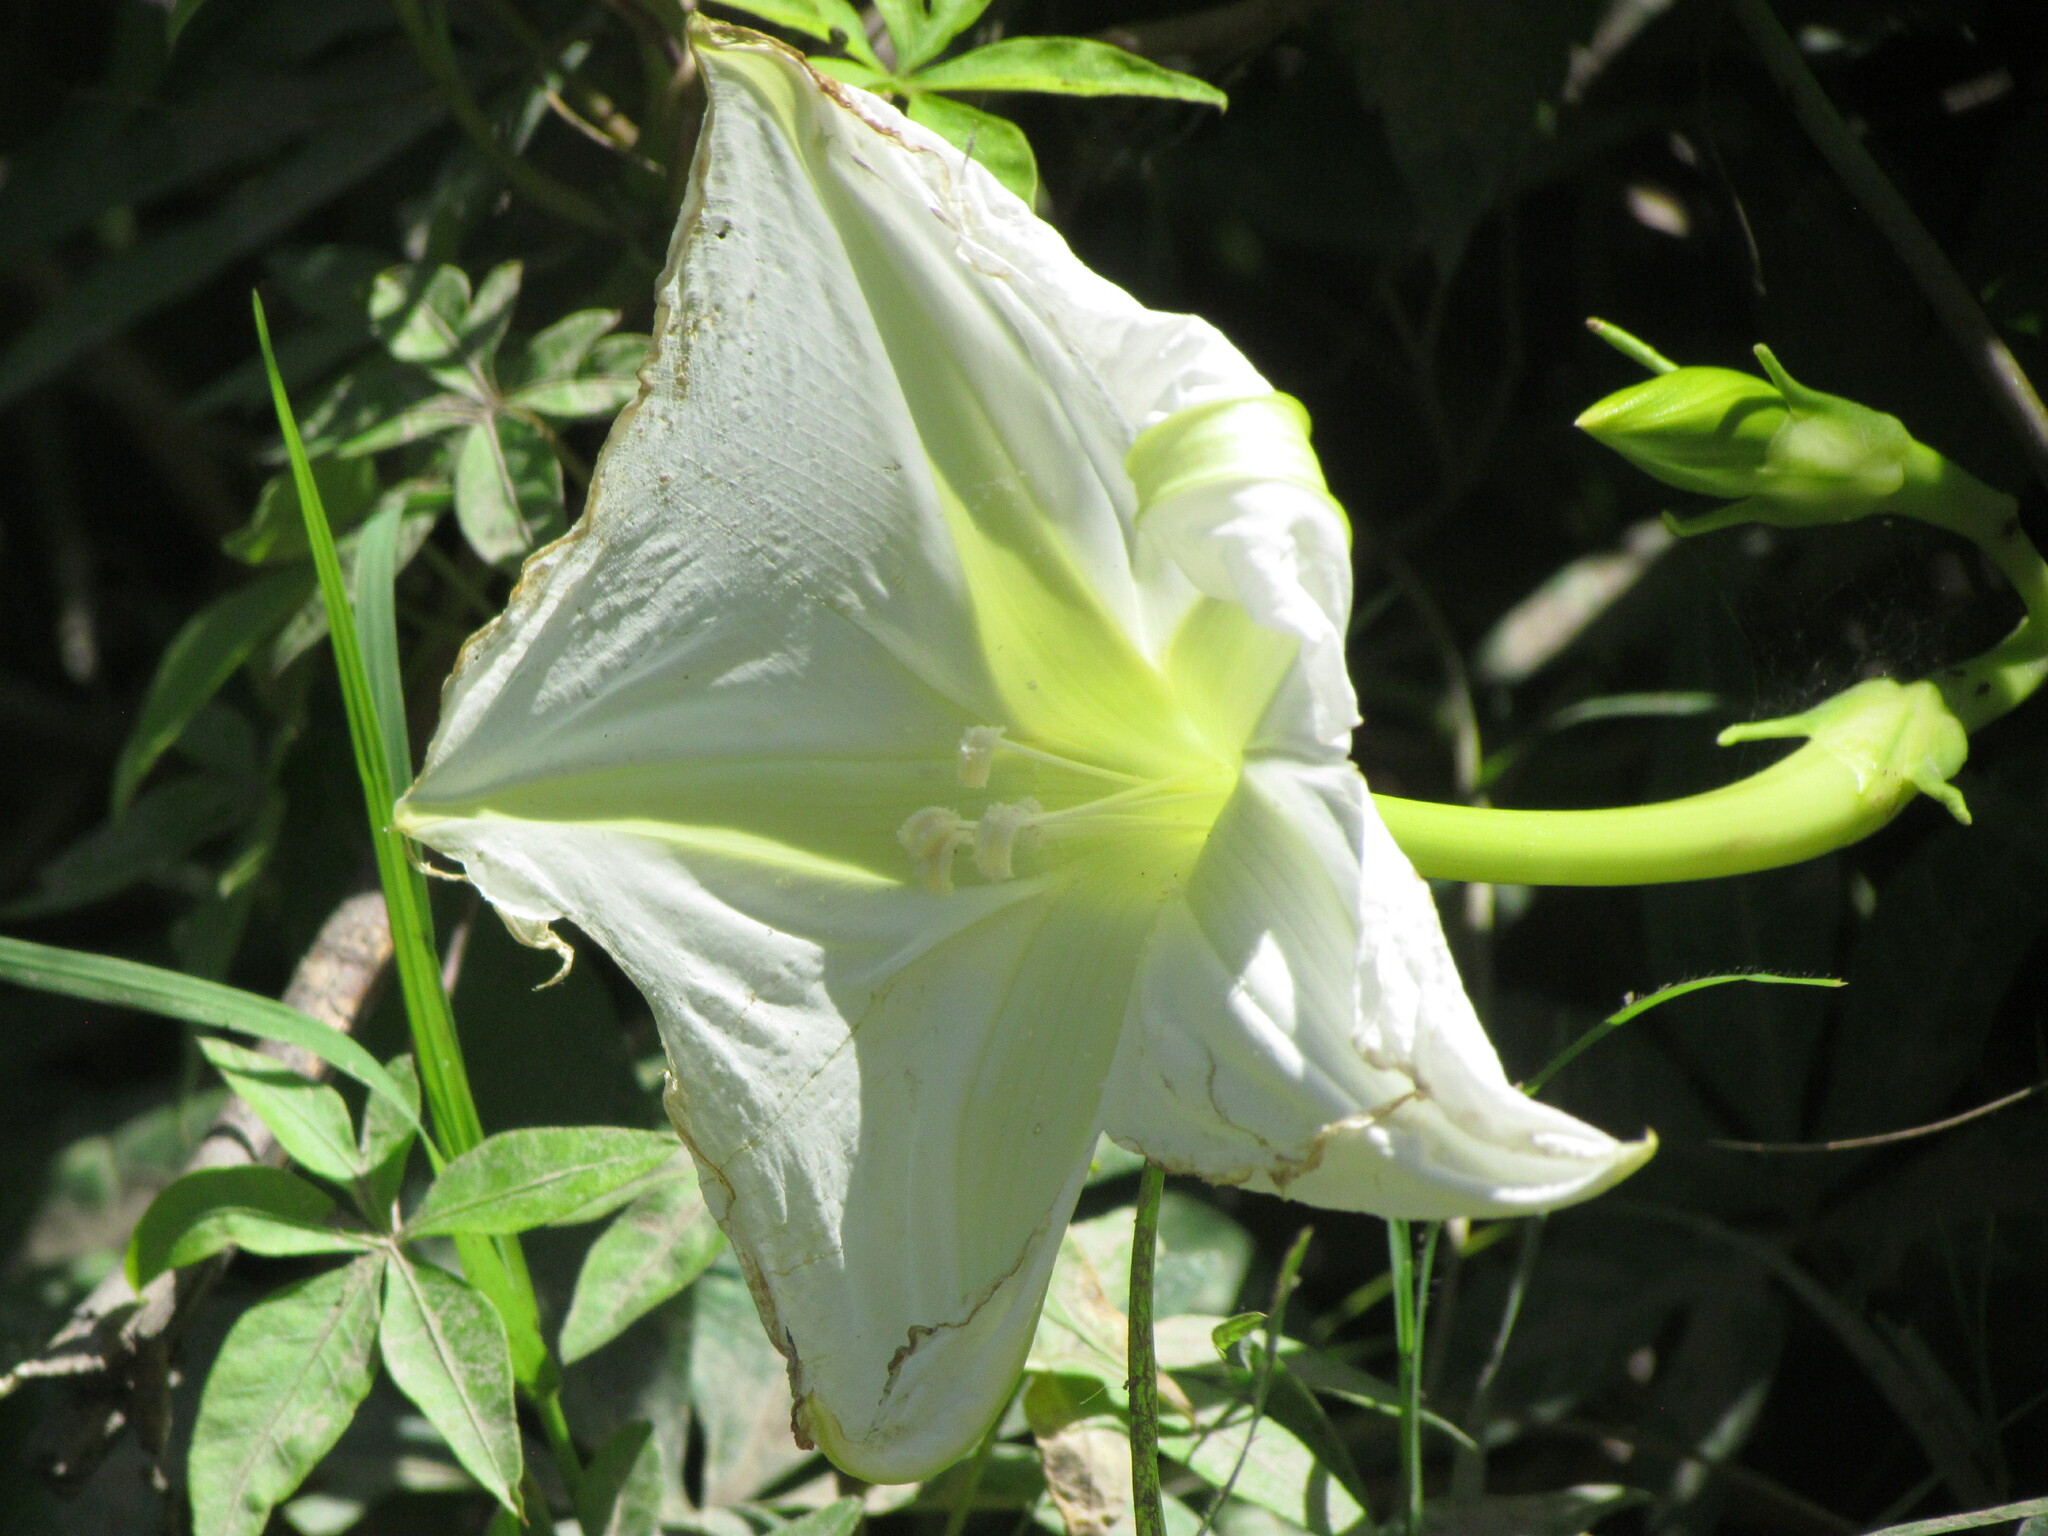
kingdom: Plantae
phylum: Tracheophyta
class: Magnoliopsida
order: Solanales
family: Convolvulaceae
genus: Ipomoea
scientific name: Ipomoea alba
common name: Moonflower
